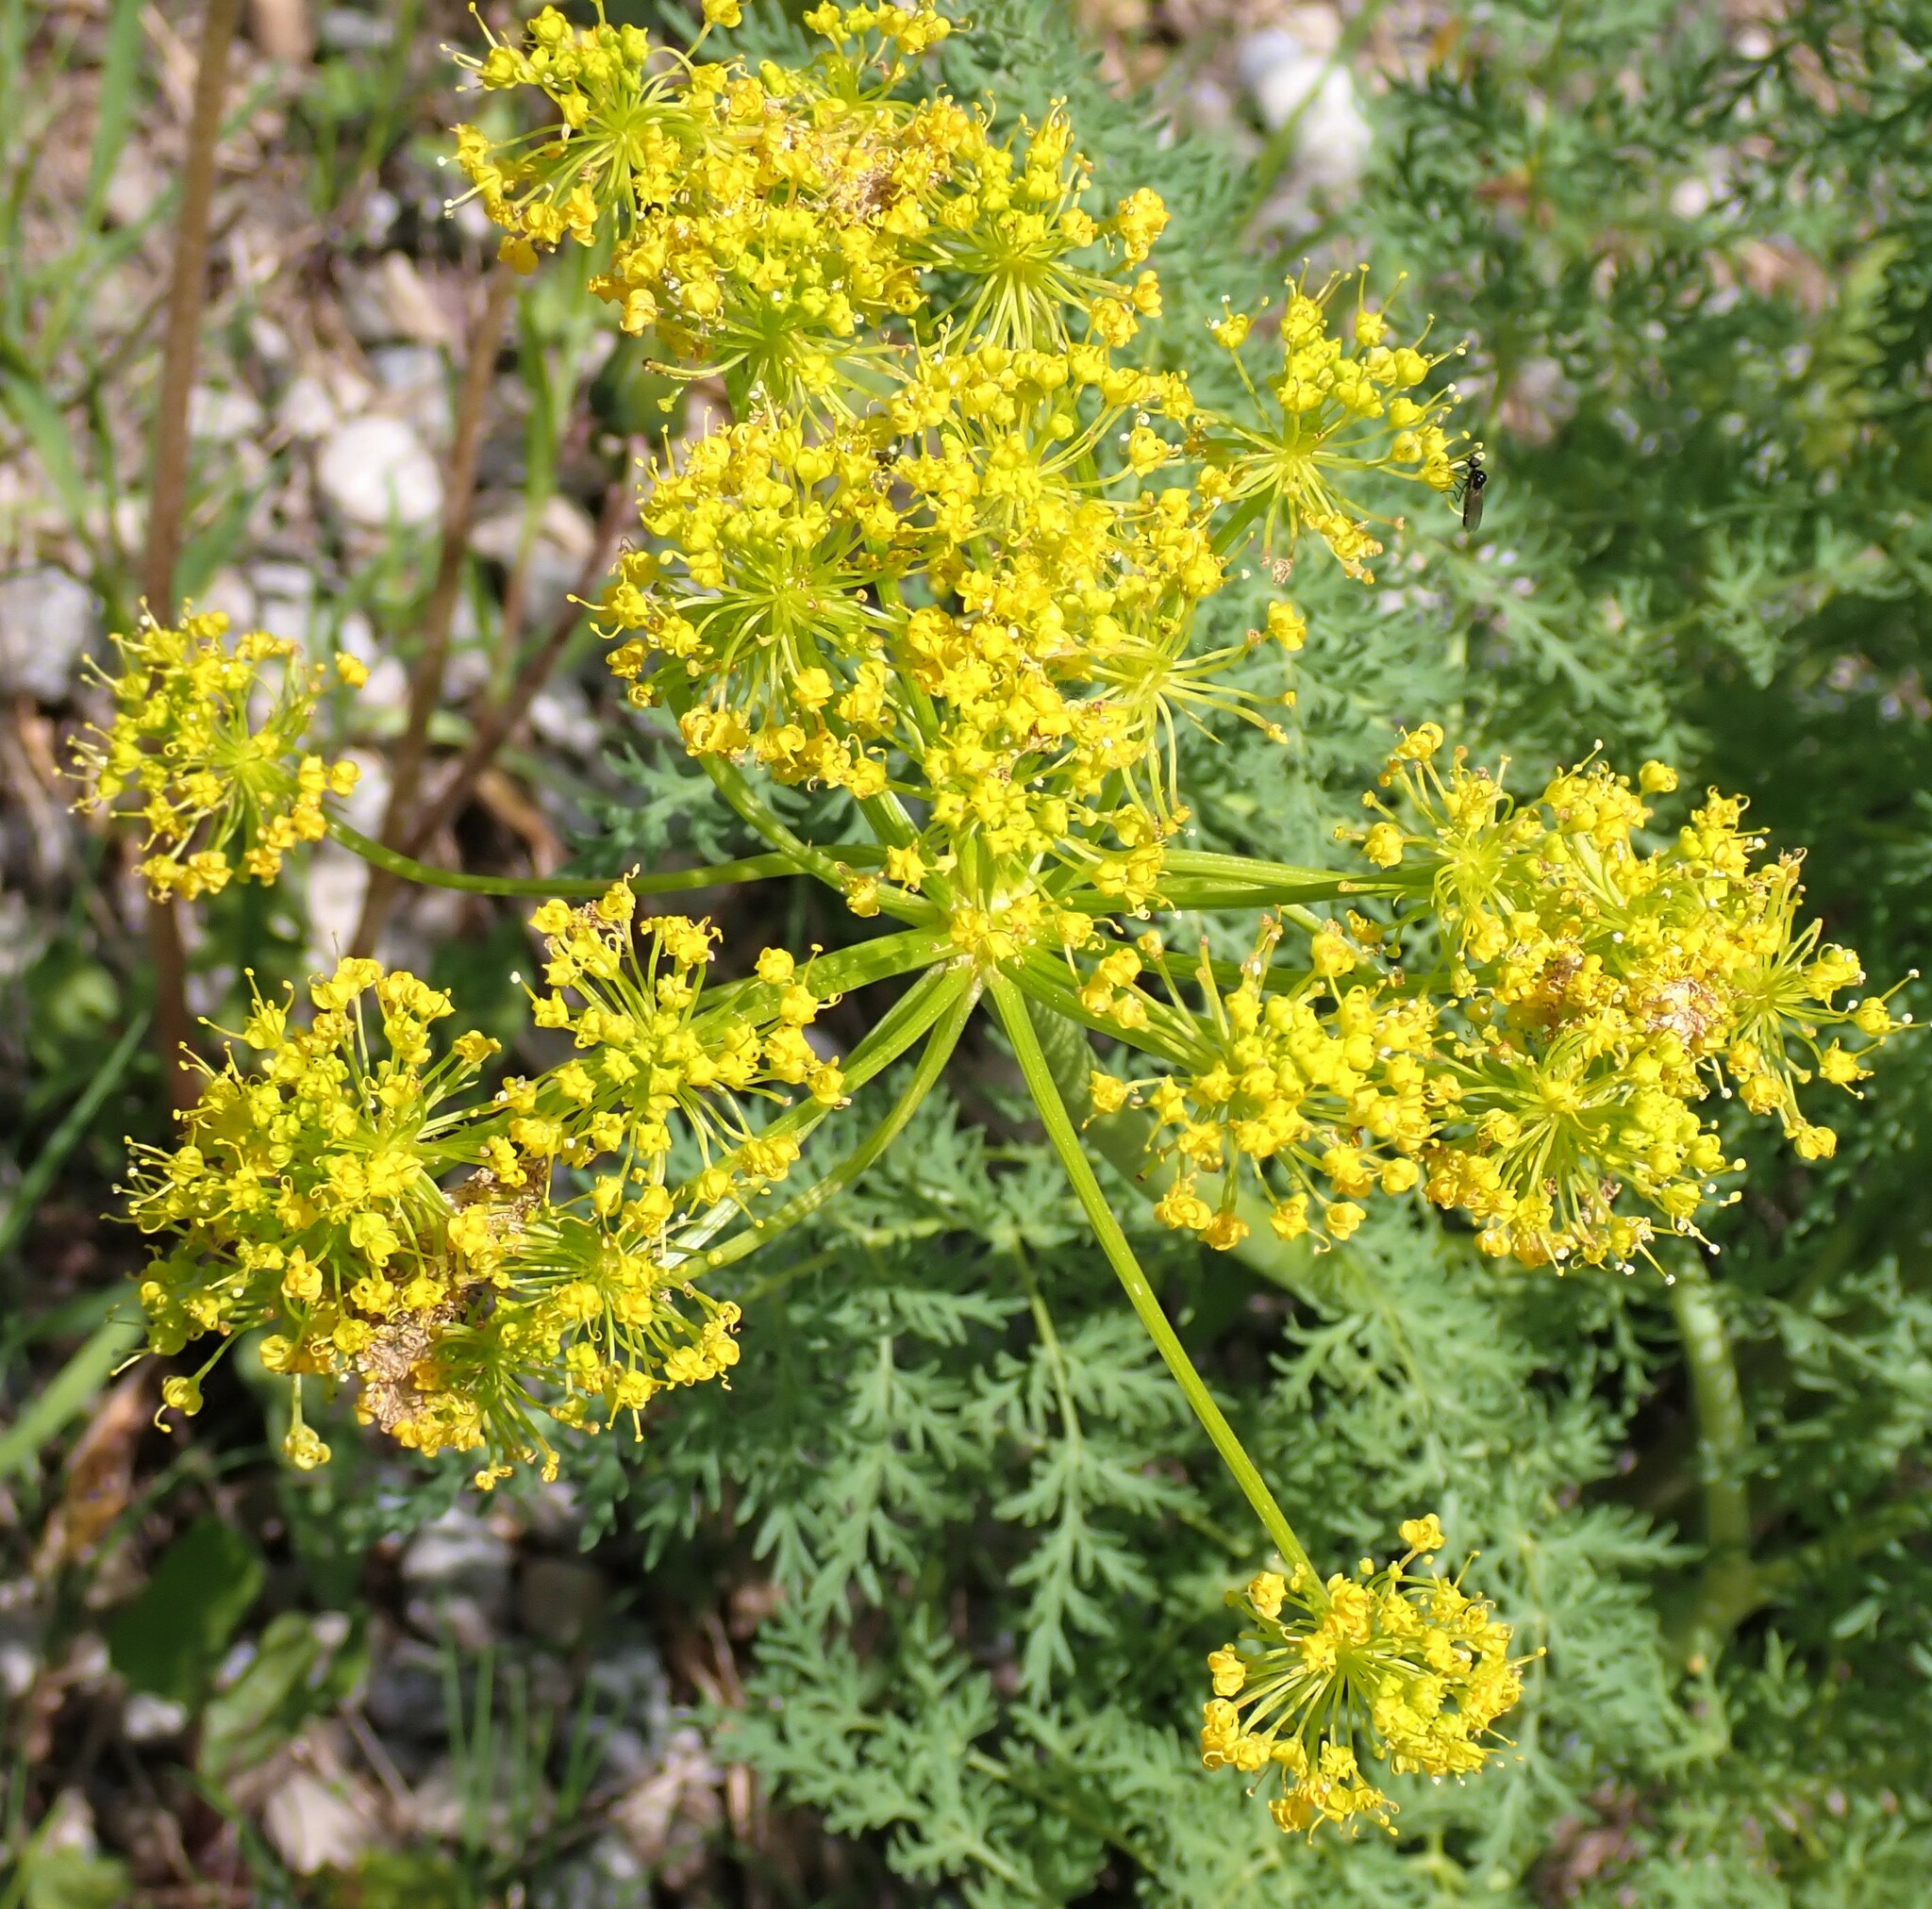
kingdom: Plantae
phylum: Tracheophyta
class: Magnoliopsida
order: Apiales
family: Apiaceae
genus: Lomatium
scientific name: Lomatium multifidum
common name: Carrot-leaved biscuitroot
